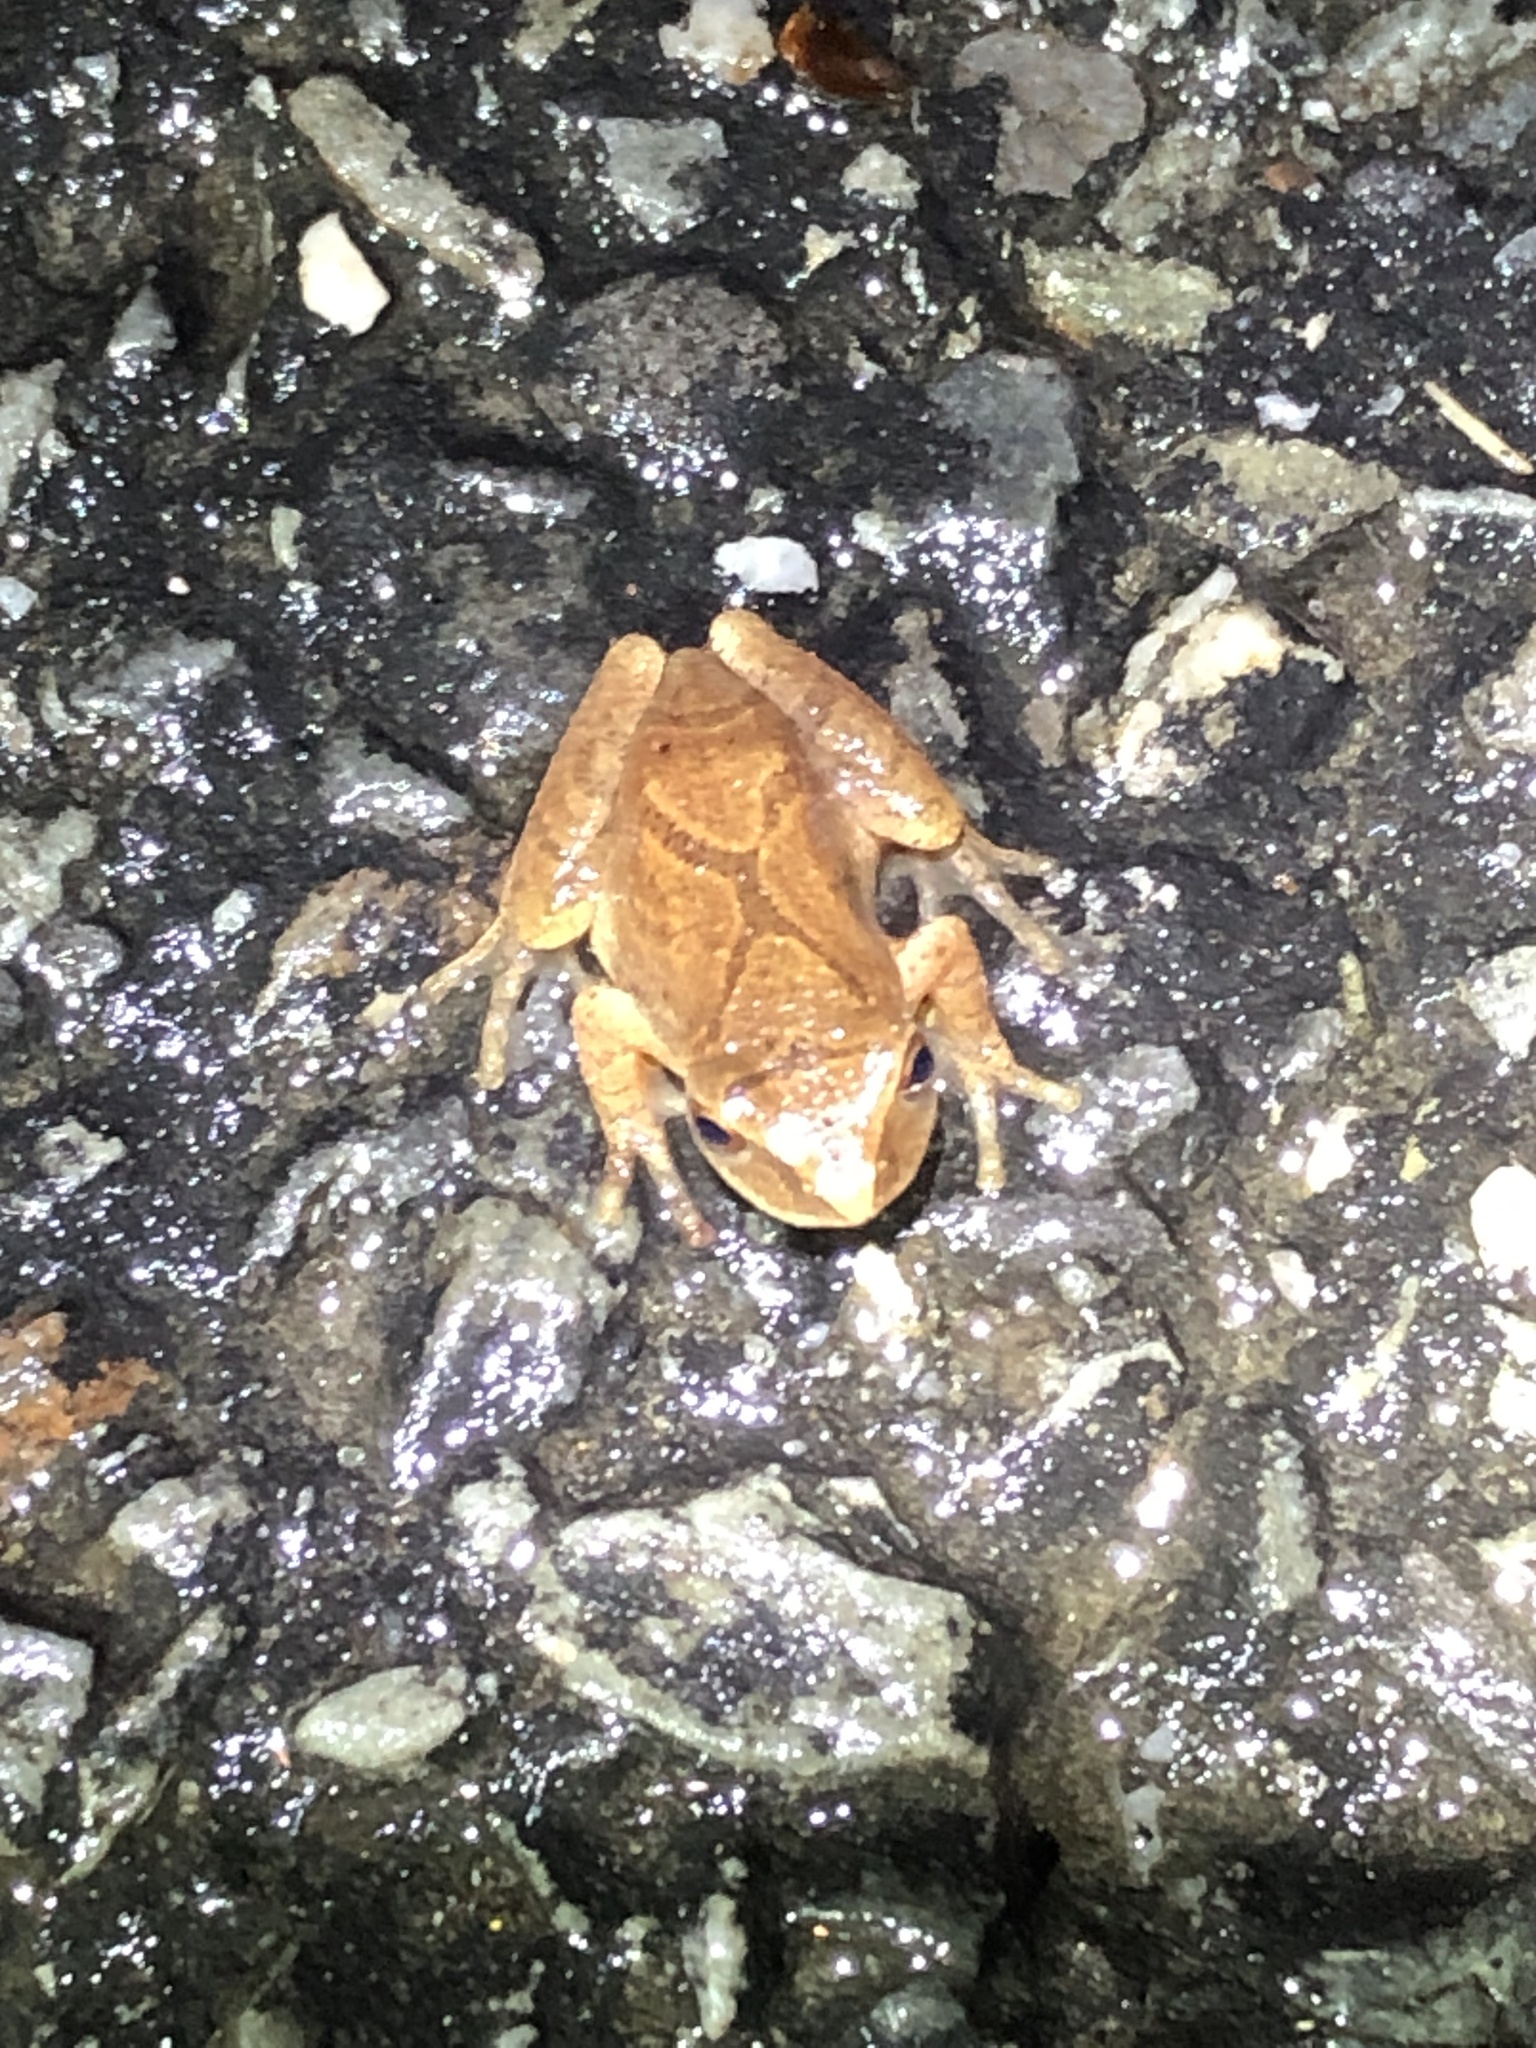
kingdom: Animalia
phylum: Chordata
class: Amphibia
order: Anura
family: Hylidae
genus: Pseudacris
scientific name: Pseudacris crucifer
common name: Spring peeper
